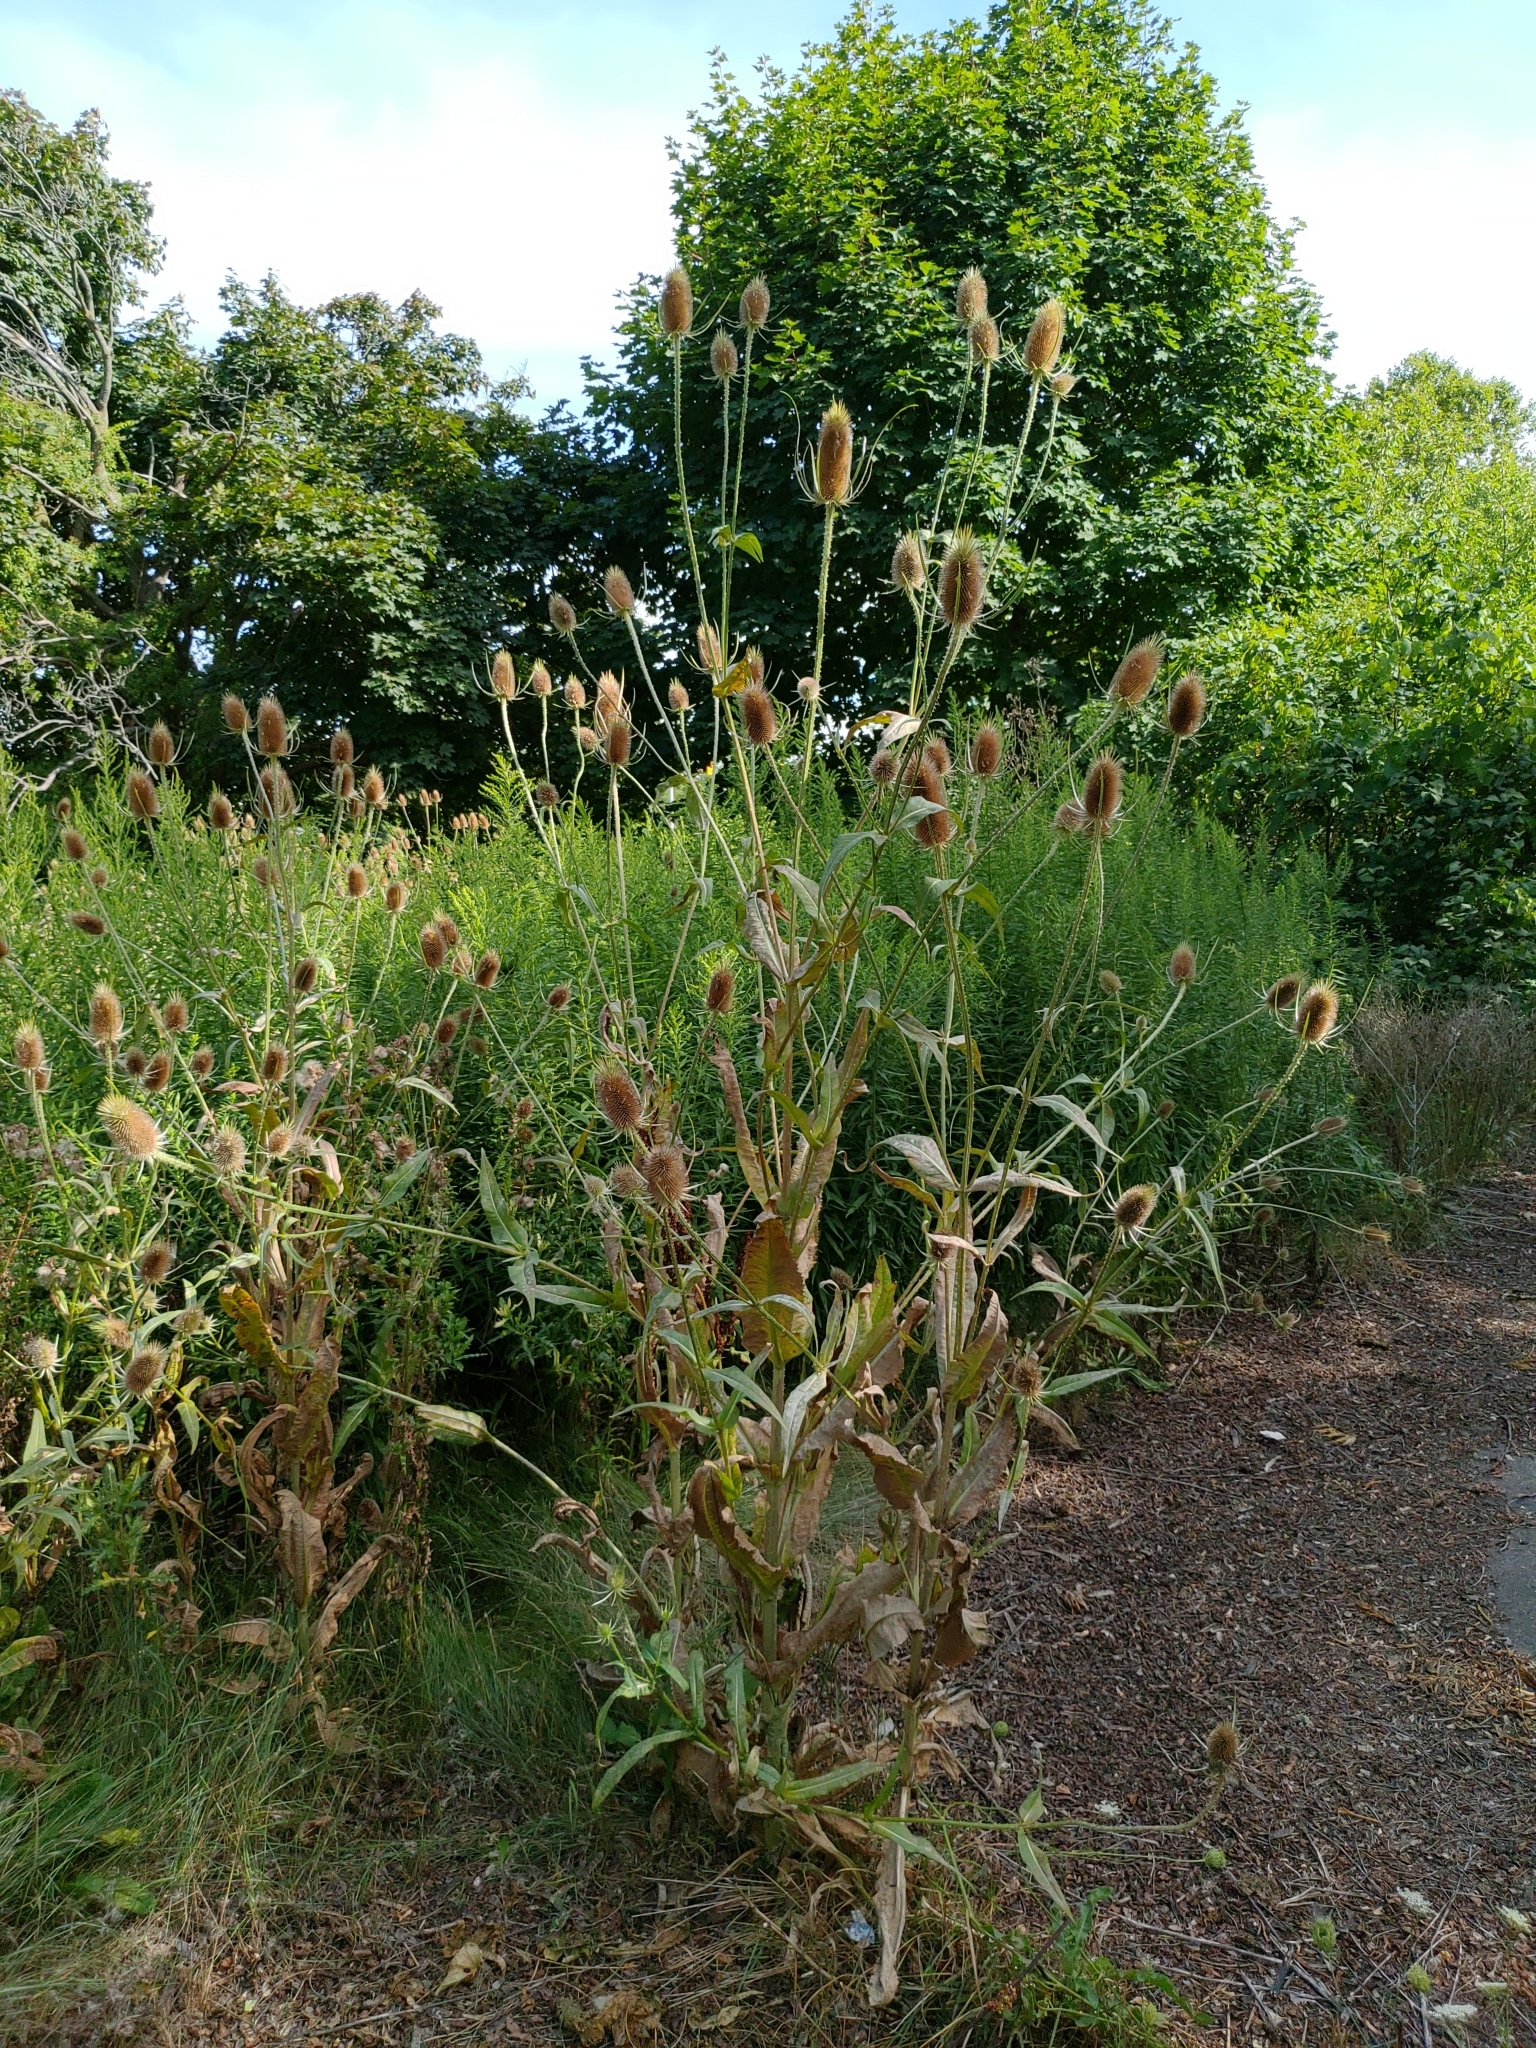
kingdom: Plantae
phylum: Tracheophyta
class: Magnoliopsida
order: Dipsacales
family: Caprifoliaceae
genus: Dipsacus
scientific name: Dipsacus fullonum
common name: Teasel
